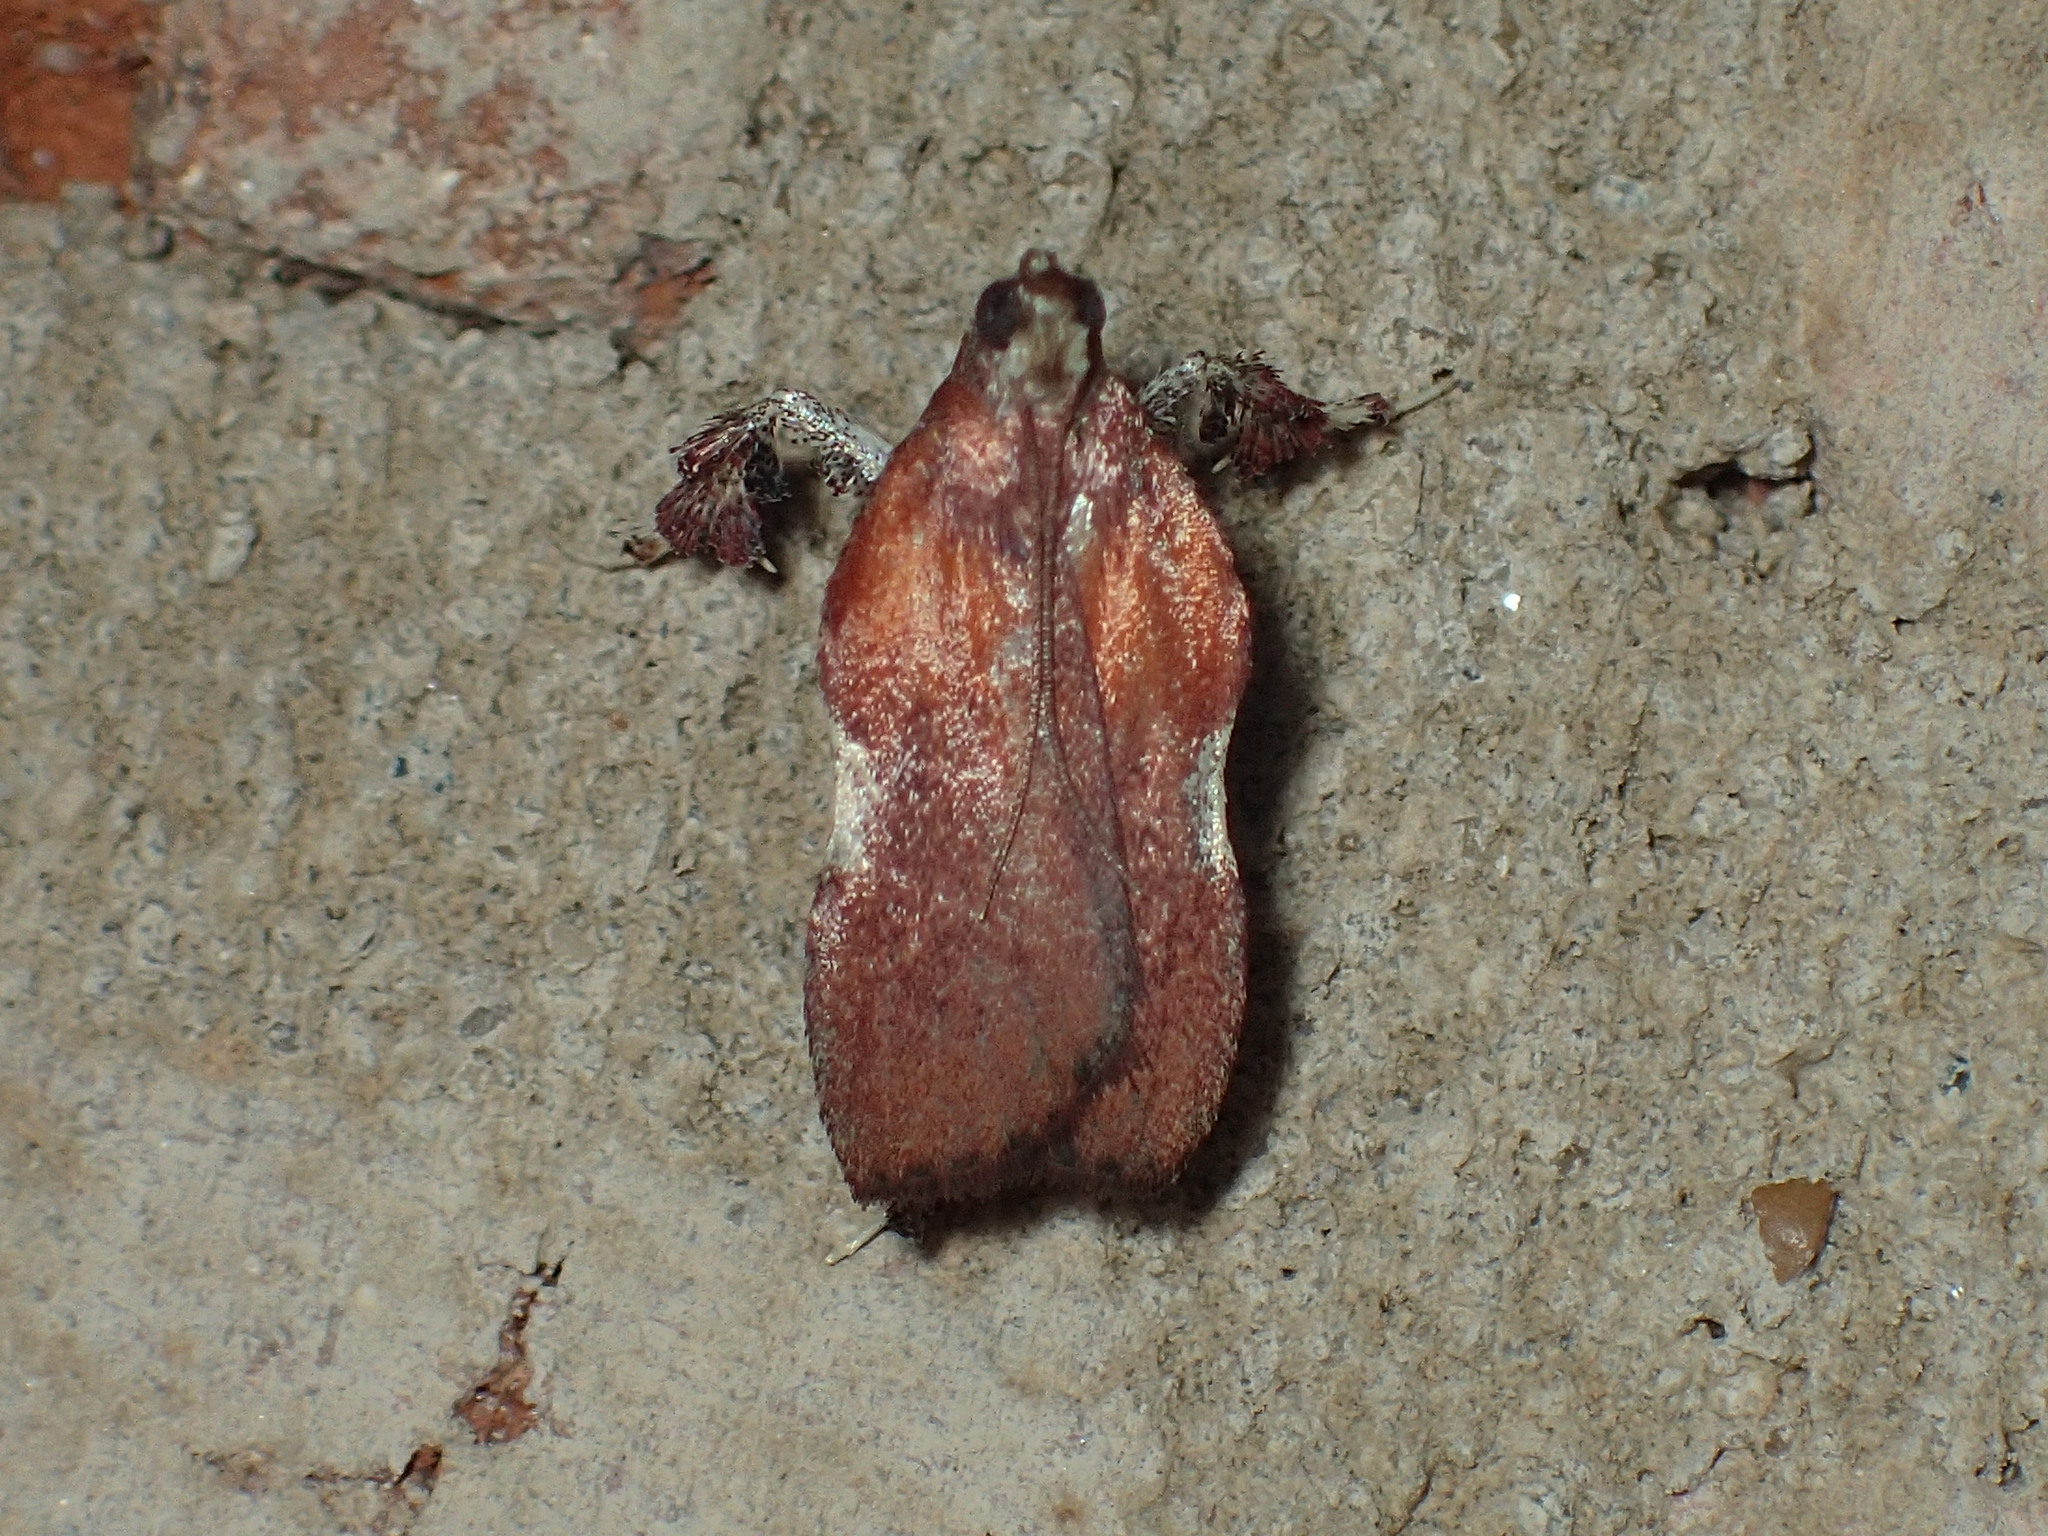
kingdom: Animalia
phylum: Arthropoda
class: Insecta
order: Lepidoptera
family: Pyralidae
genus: Galasa
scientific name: Galasa nigrinodis
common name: Boxwood leaftier moth
